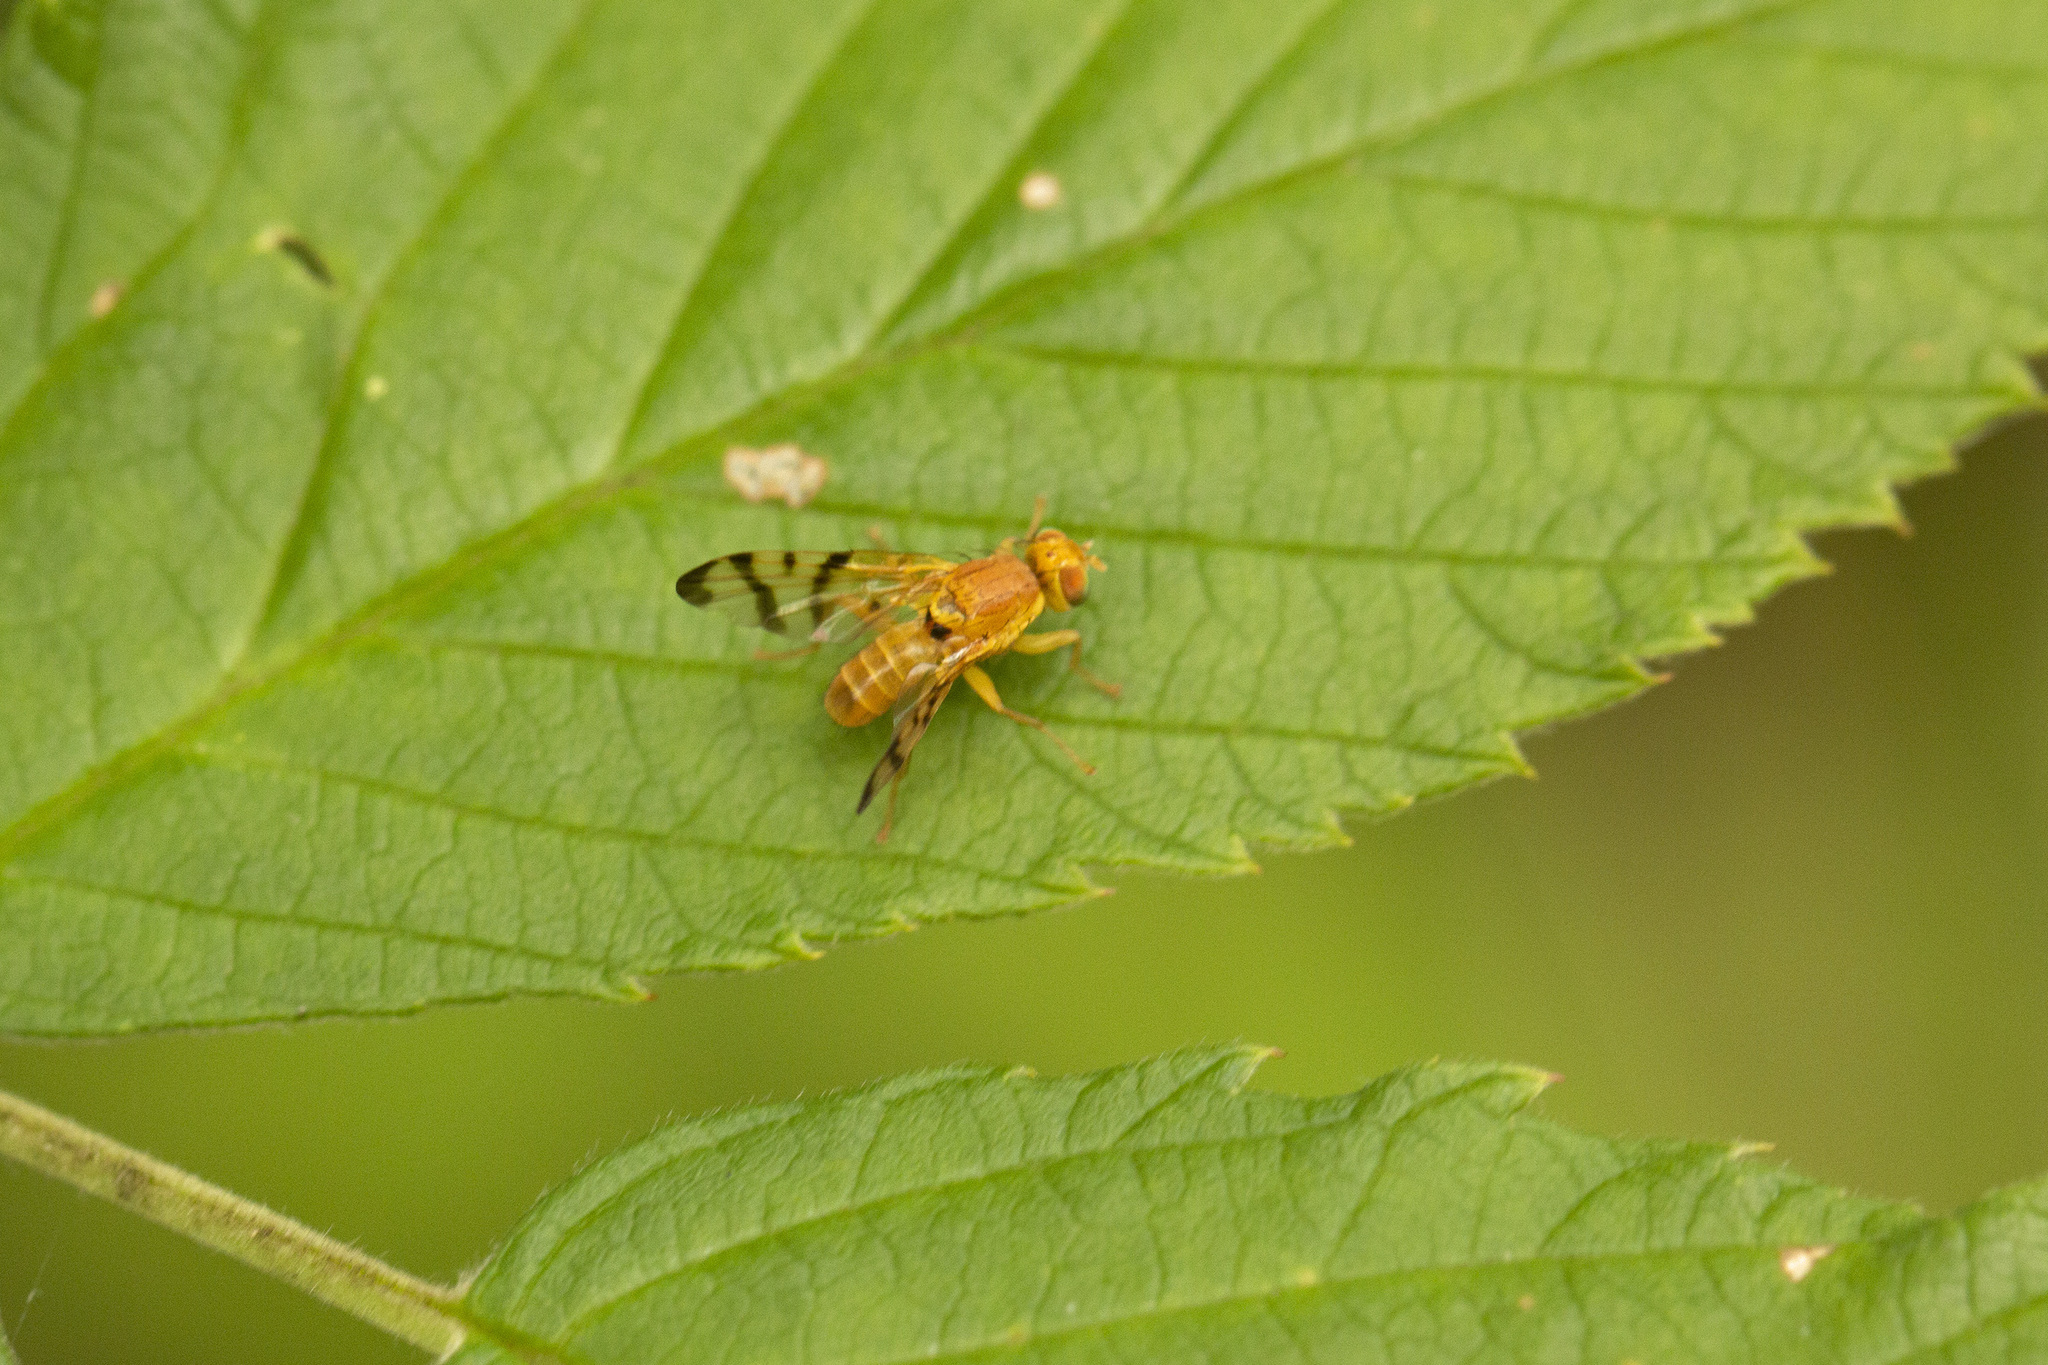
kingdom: Animalia
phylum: Arthropoda
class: Insecta
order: Diptera
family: Tephritidae
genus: Rhagoletis
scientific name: Rhagoletis alternata
